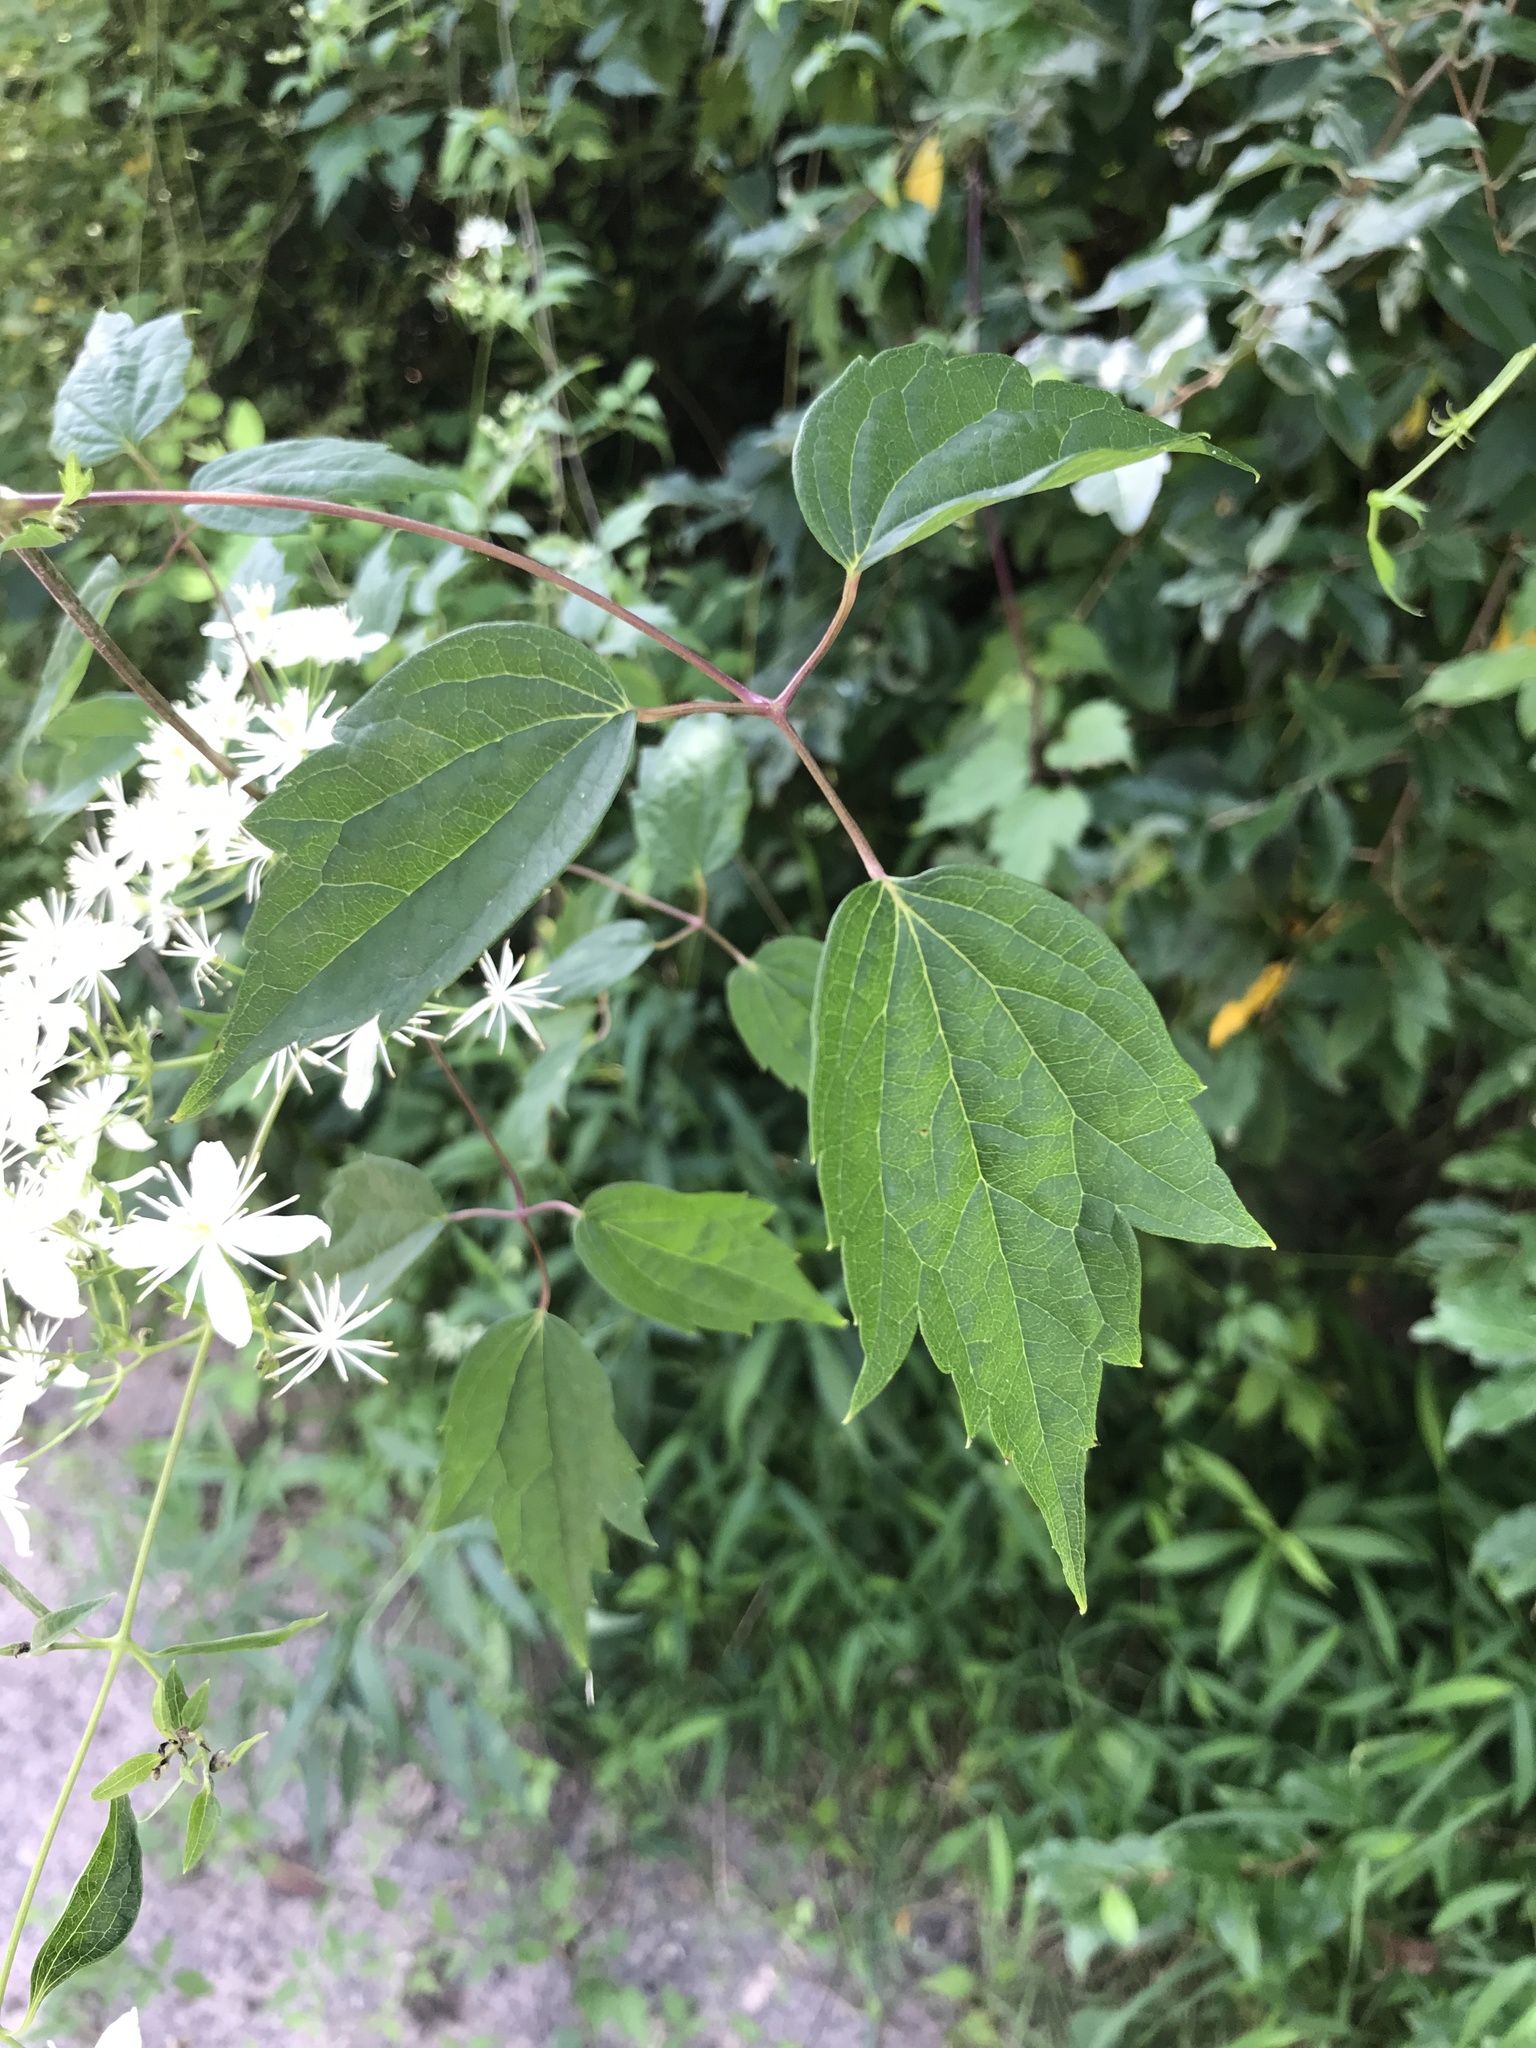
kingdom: Plantae
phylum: Tracheophyta
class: Magnoliopsida
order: Ranunculales
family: Ranunculaceae
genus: Clematis
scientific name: Clematis virginiana
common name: Virgin's-bower
